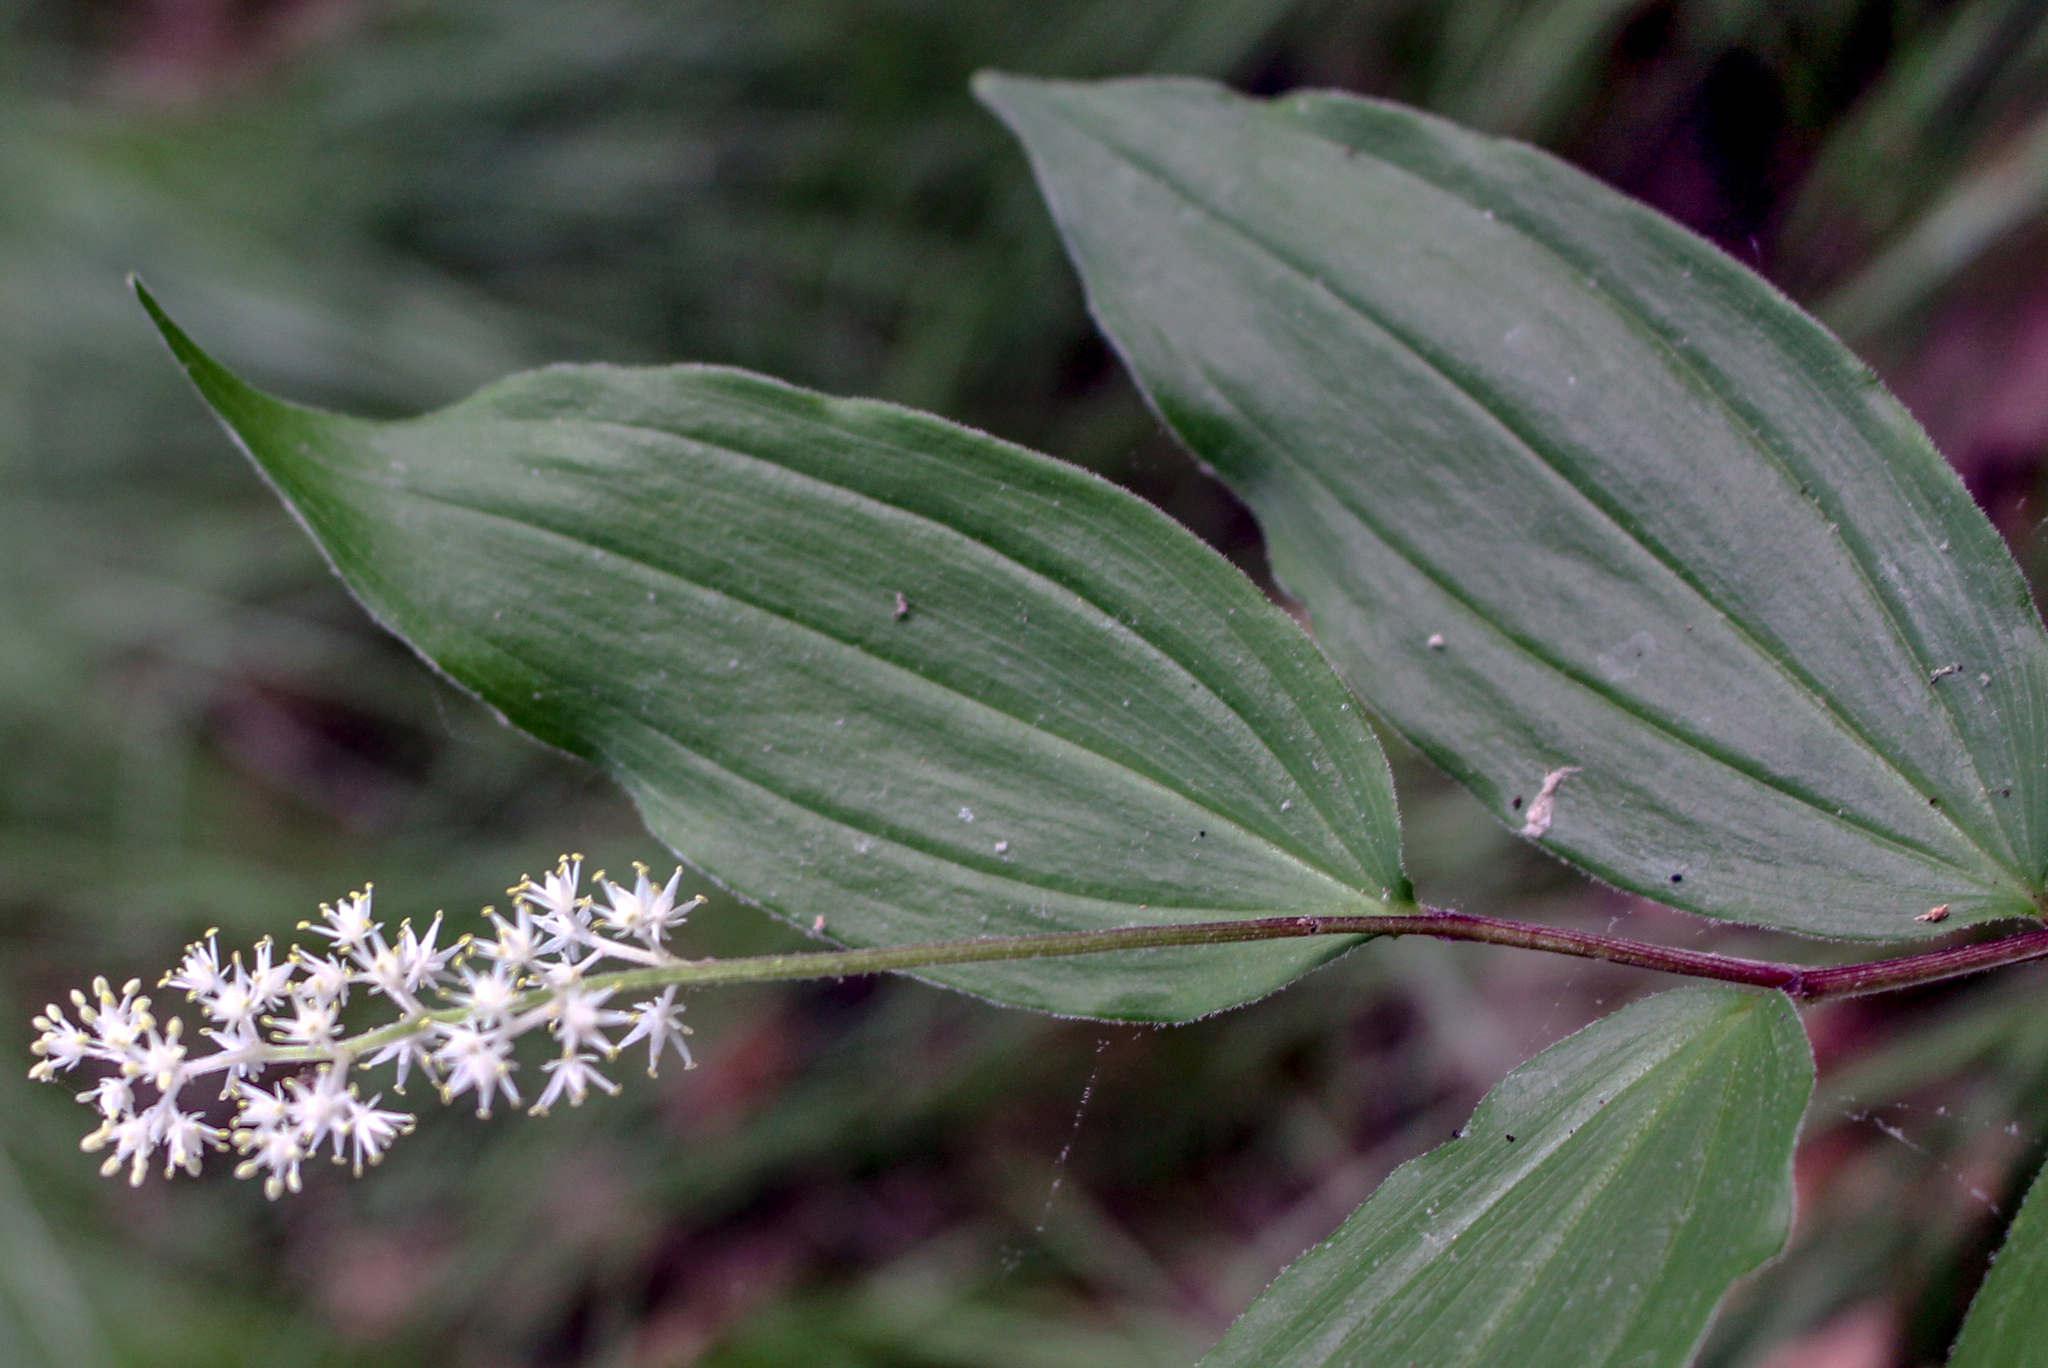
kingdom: Plantae
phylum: Tracheophyta
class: Liliopsida
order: Asparagales
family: Asparagaceae
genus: Maianthemum
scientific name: Maianthemum racemosum
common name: False spikenard
